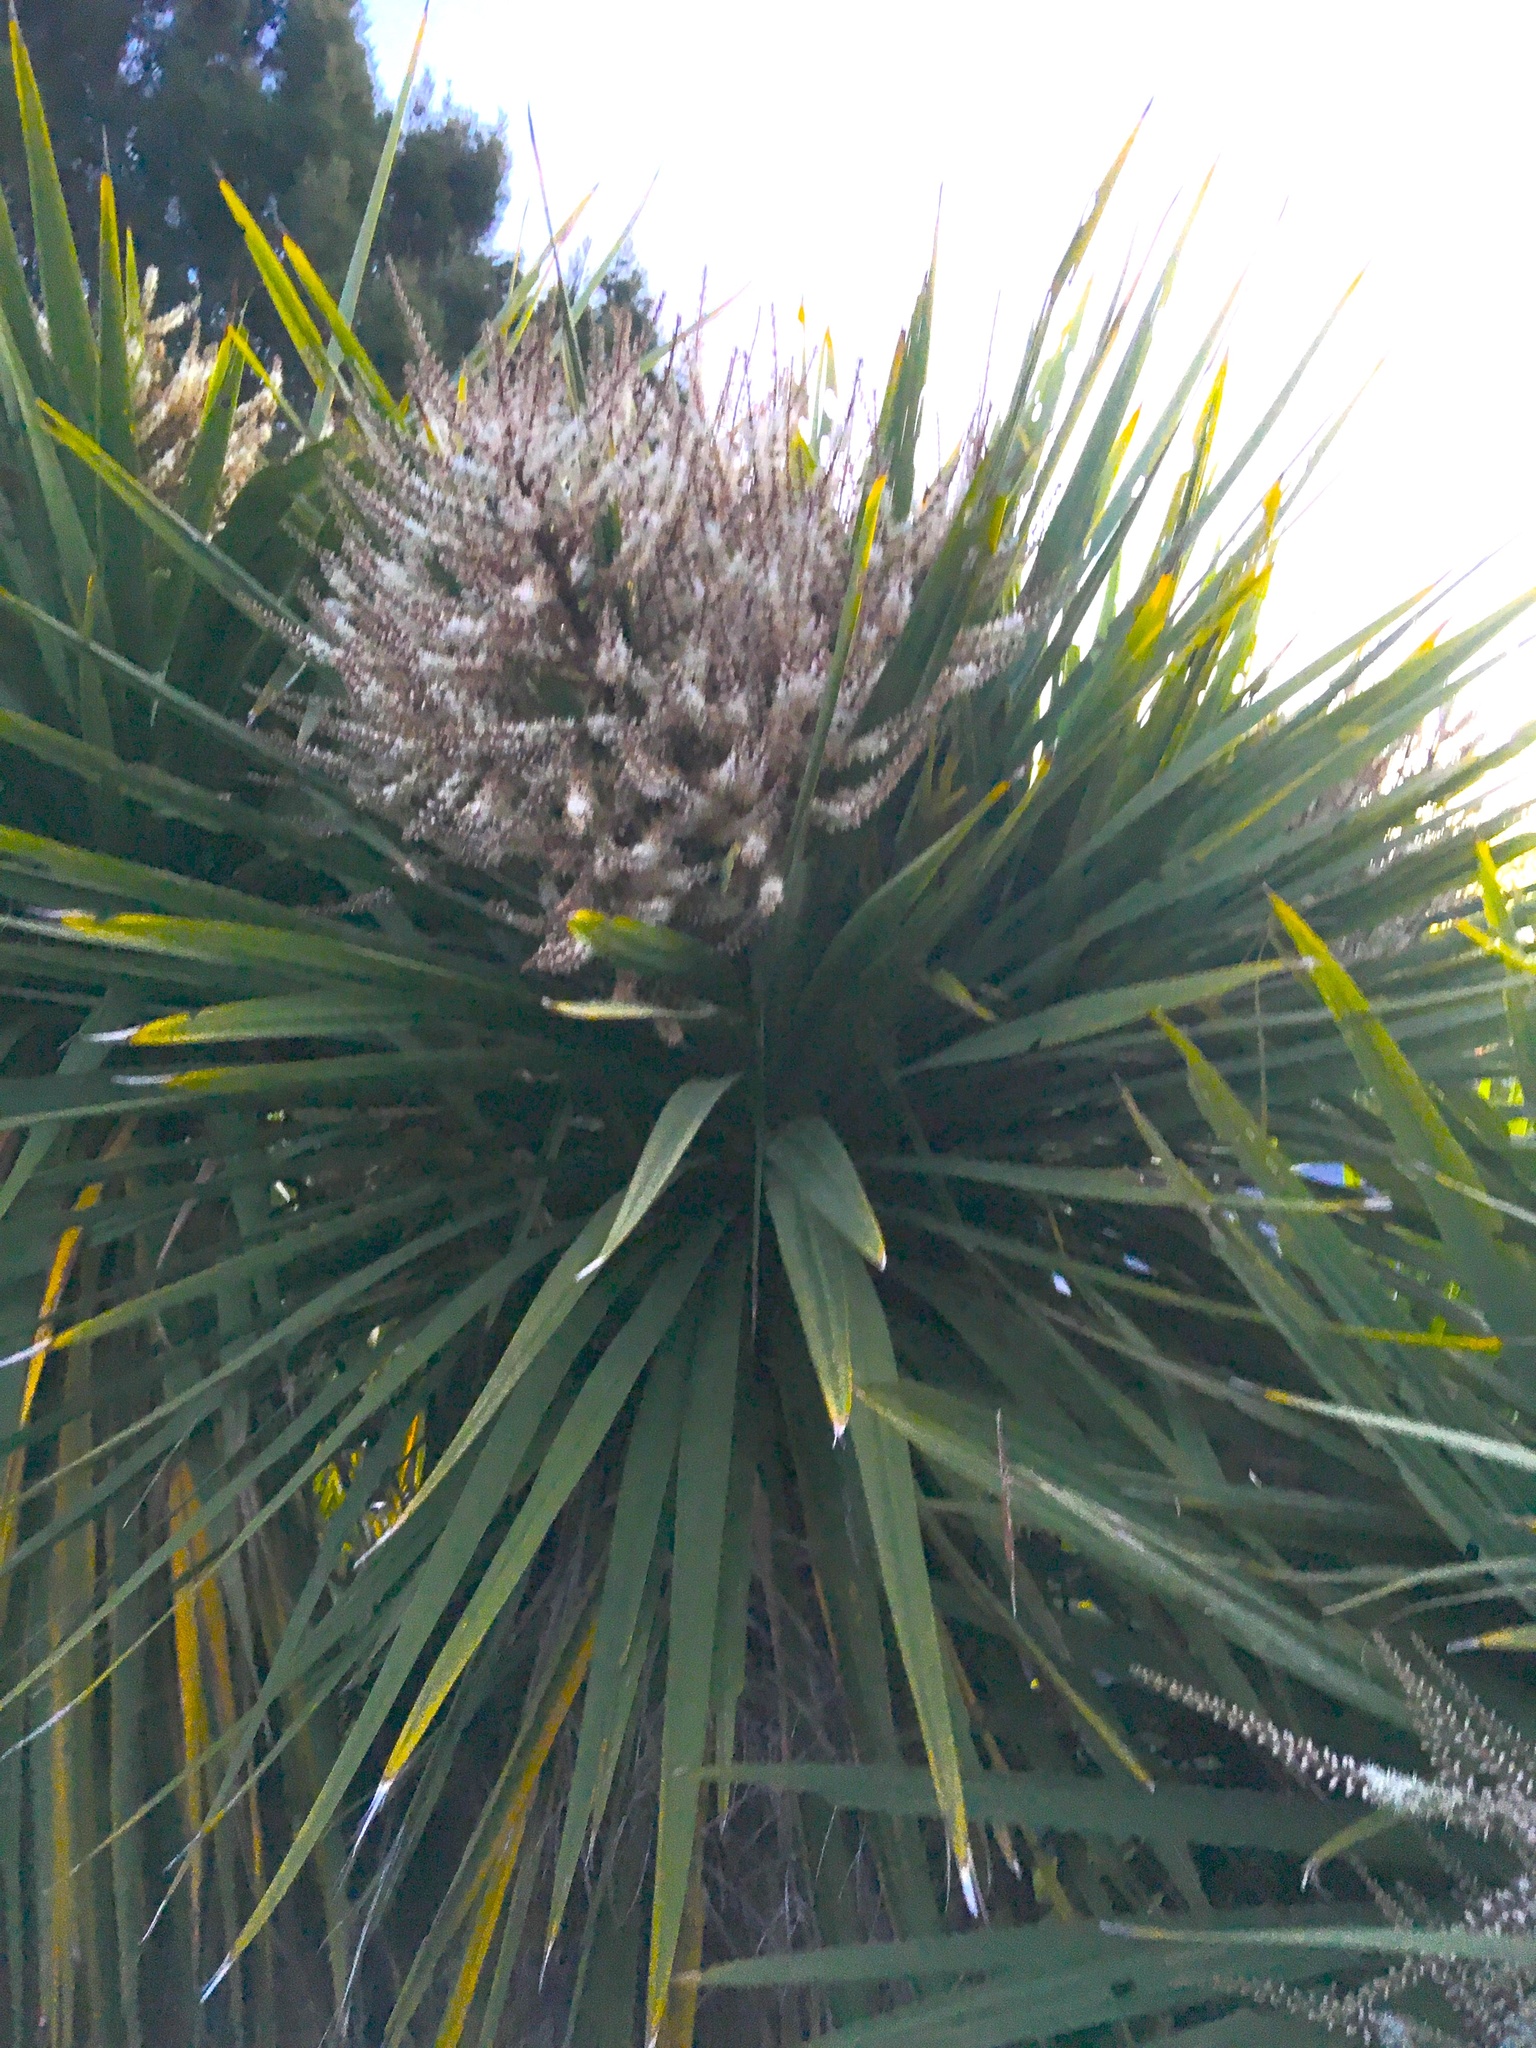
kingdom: Plantae
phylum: Tracheophyta
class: Liliopsida
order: Asparagales
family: Asparagaceae
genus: Cordyline
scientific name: Cordyline australis
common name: Cabbage-palm
